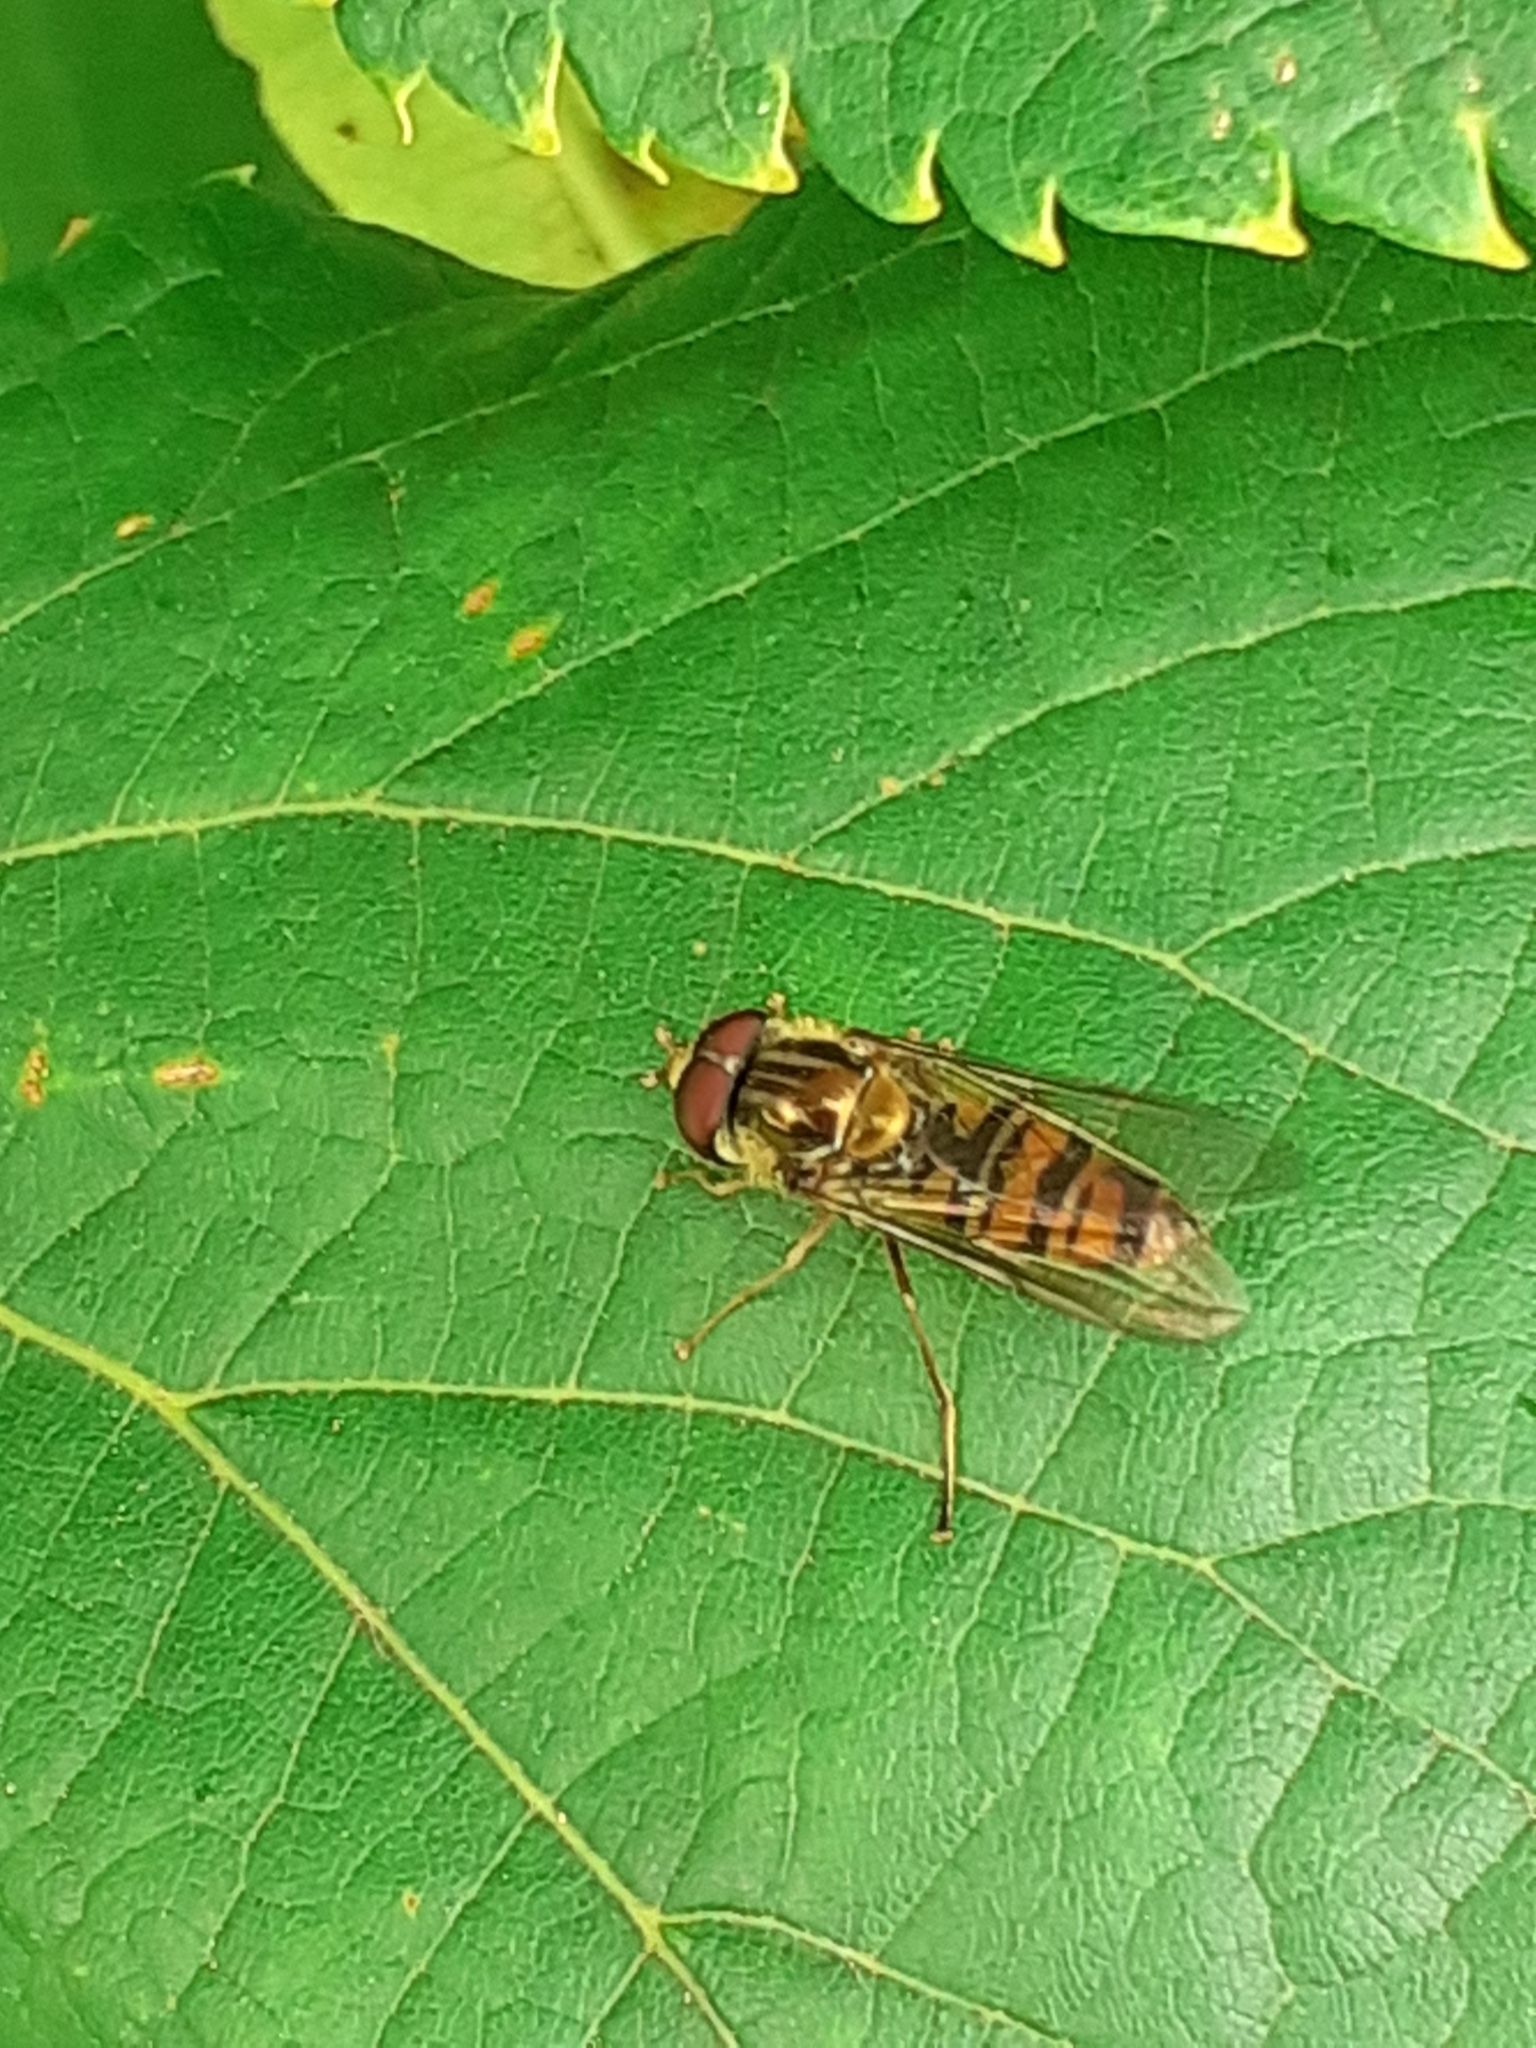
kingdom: Animalia
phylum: Arthropoda
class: Insecta
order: Diptera
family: Syrphidae
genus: Episyrphus
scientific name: Episyrphus balteatus
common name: Marmalade hoverfly
